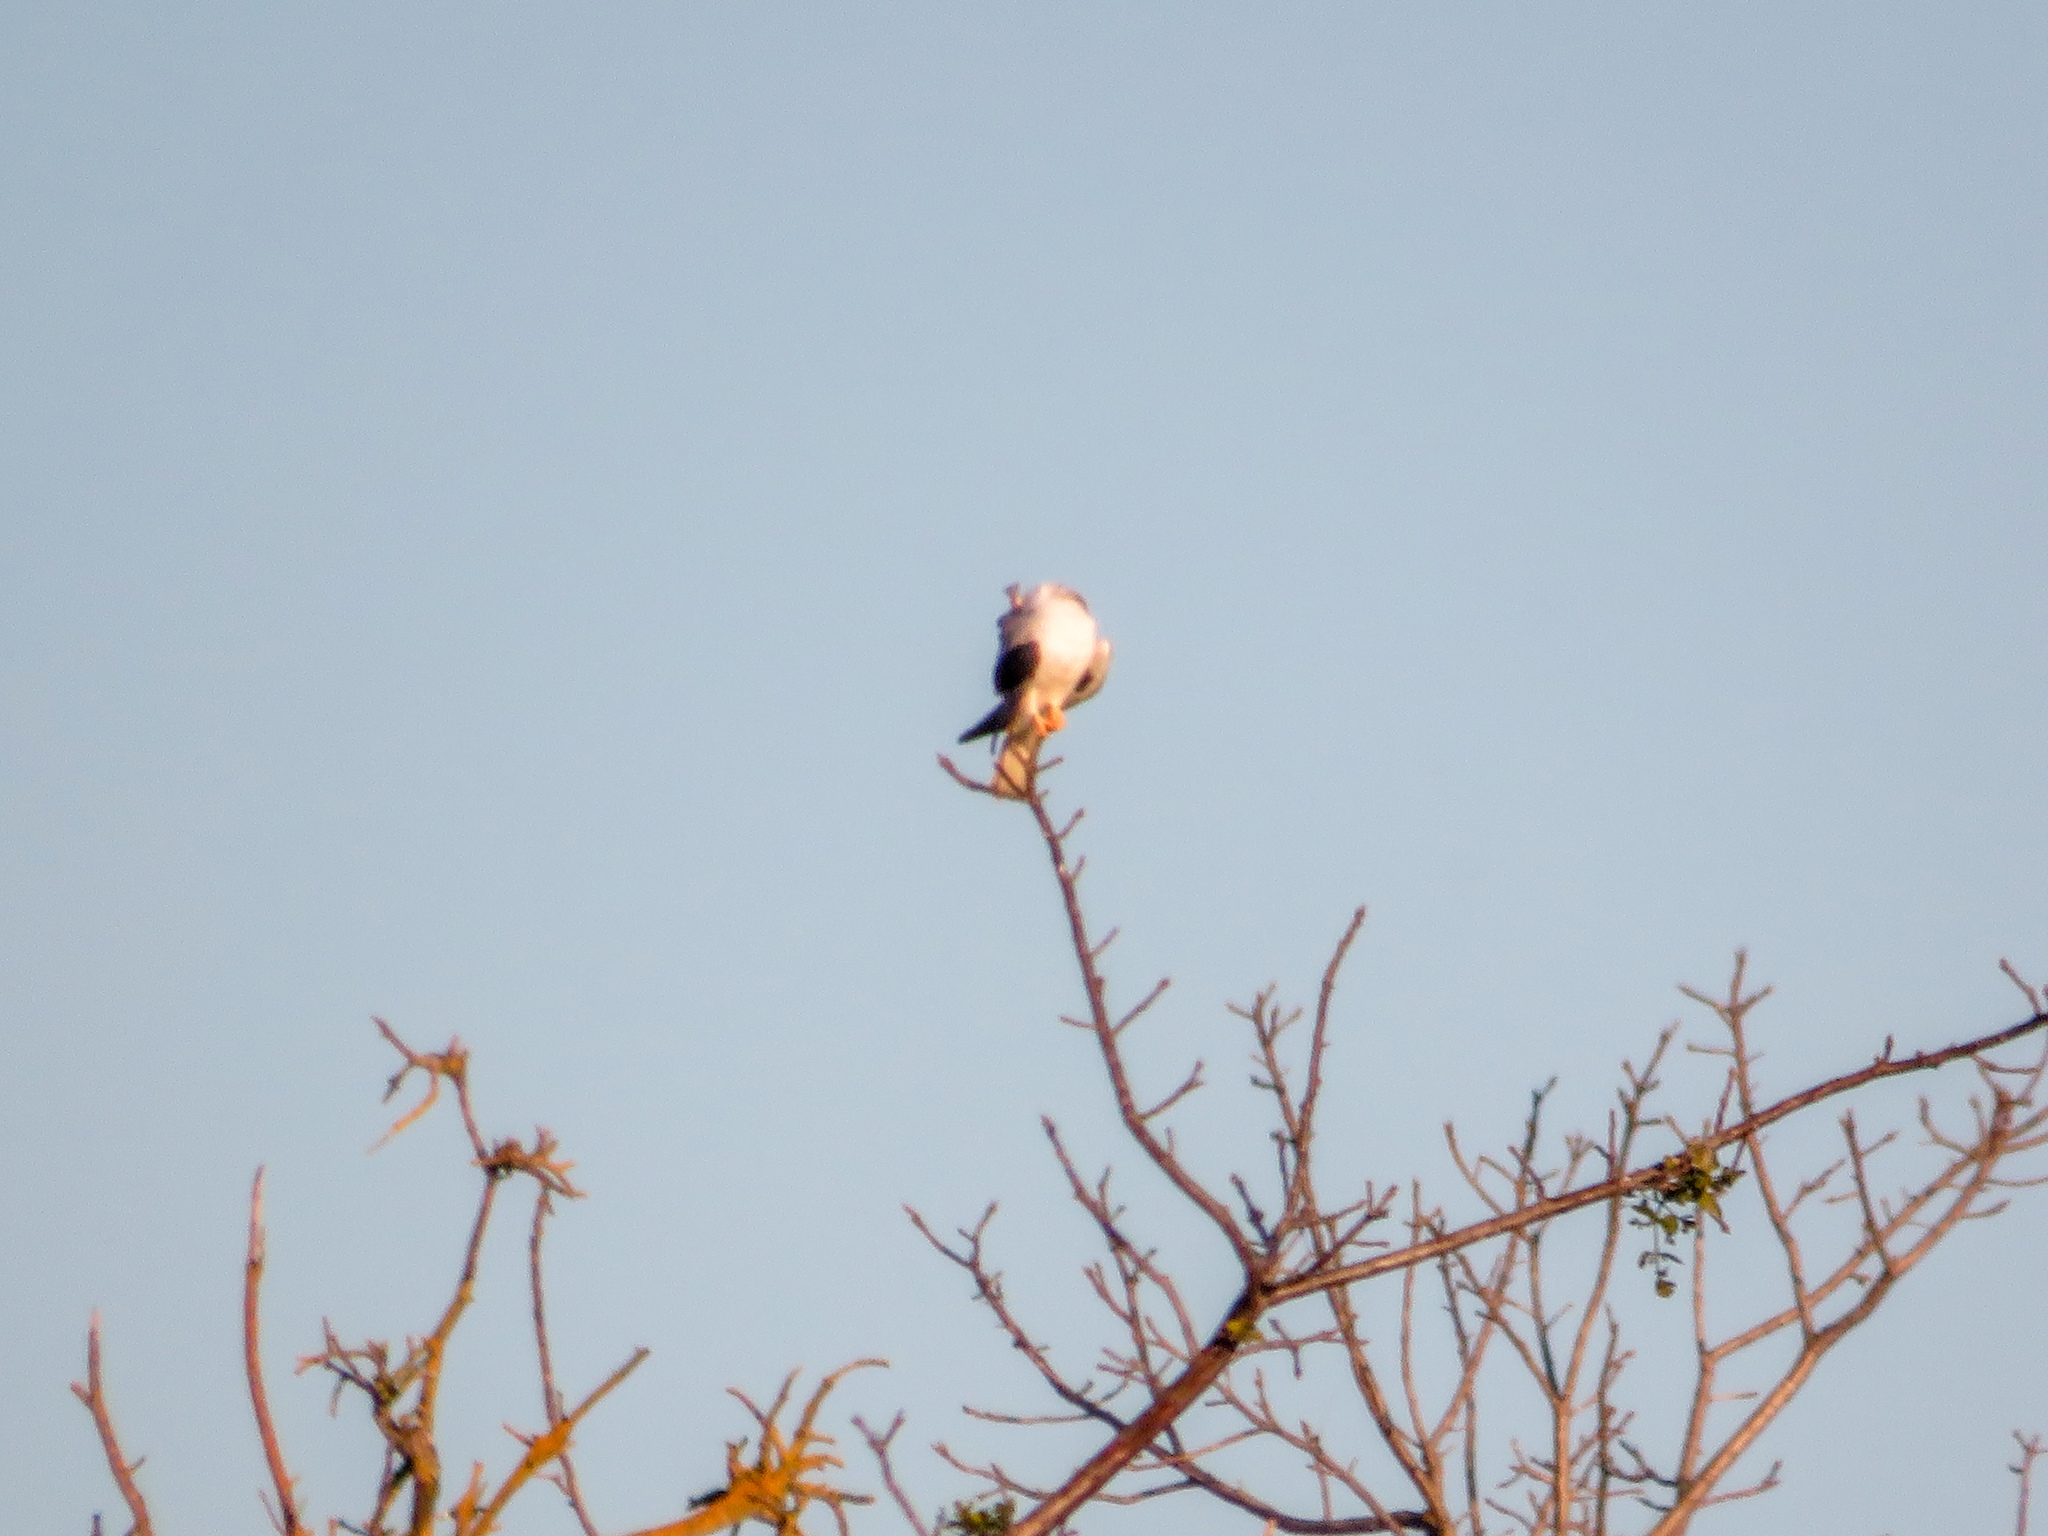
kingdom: Animalia
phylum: Chordata
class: Aves
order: Accipitriformes
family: Accipitridae
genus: Elanus
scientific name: Elanus leucurus
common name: White-tailed kite
